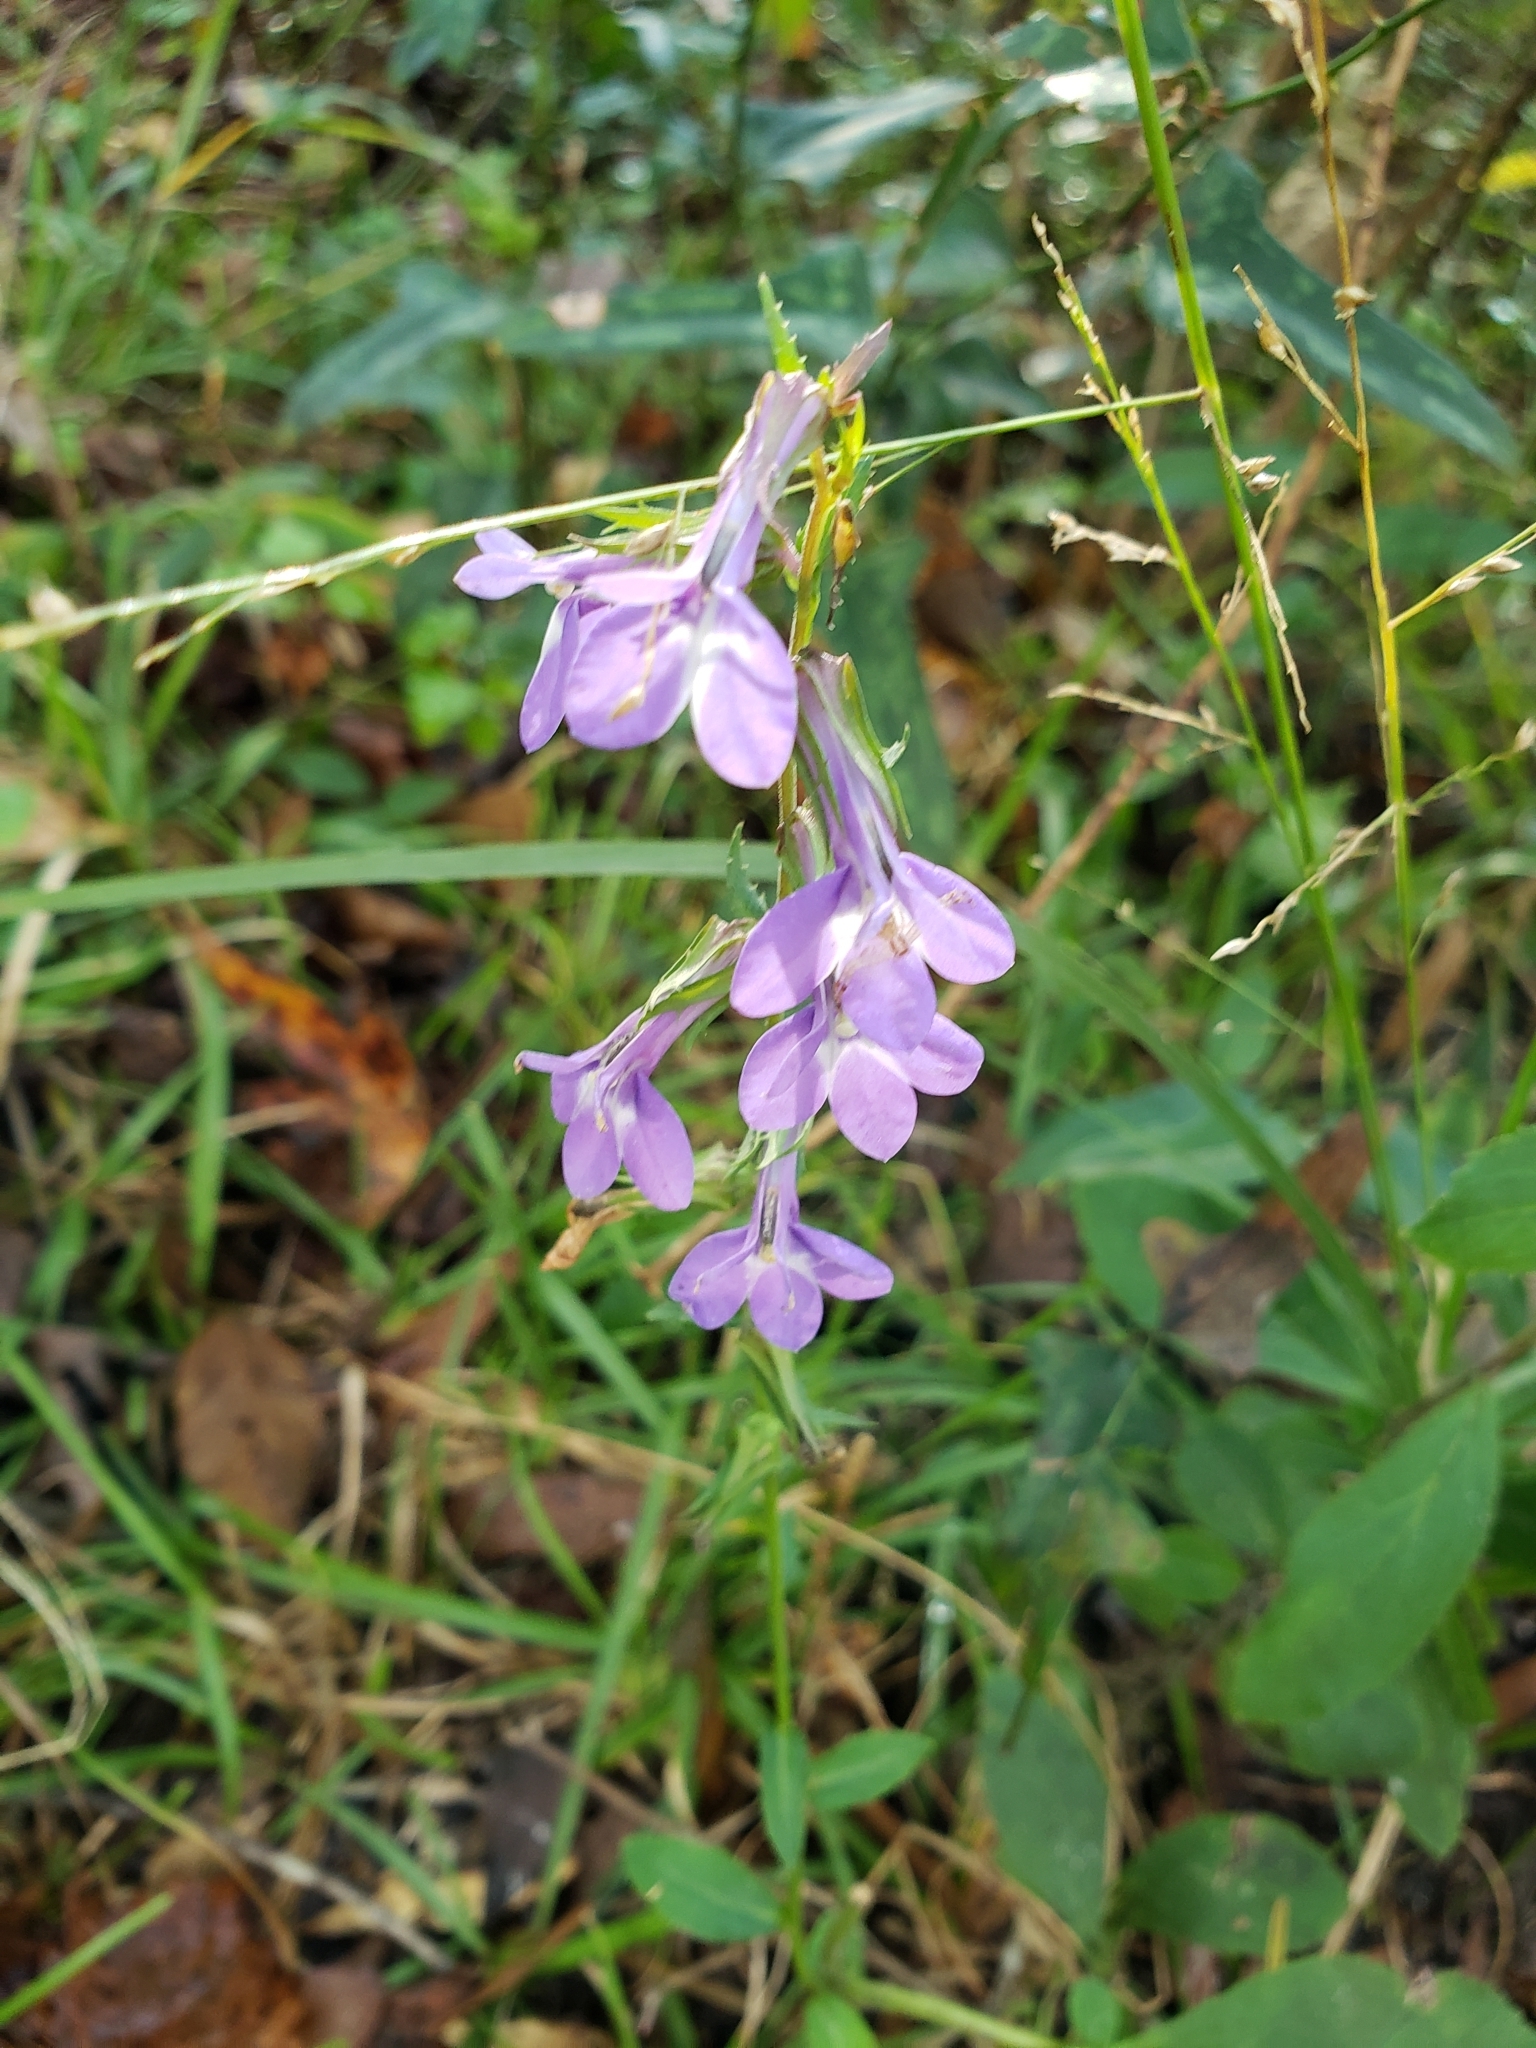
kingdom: Plantae
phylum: Tracheophyta
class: Magnoliopsida
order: Asterales
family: Campanulaceae
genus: Lobelia
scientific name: Lobelia glandulosa
